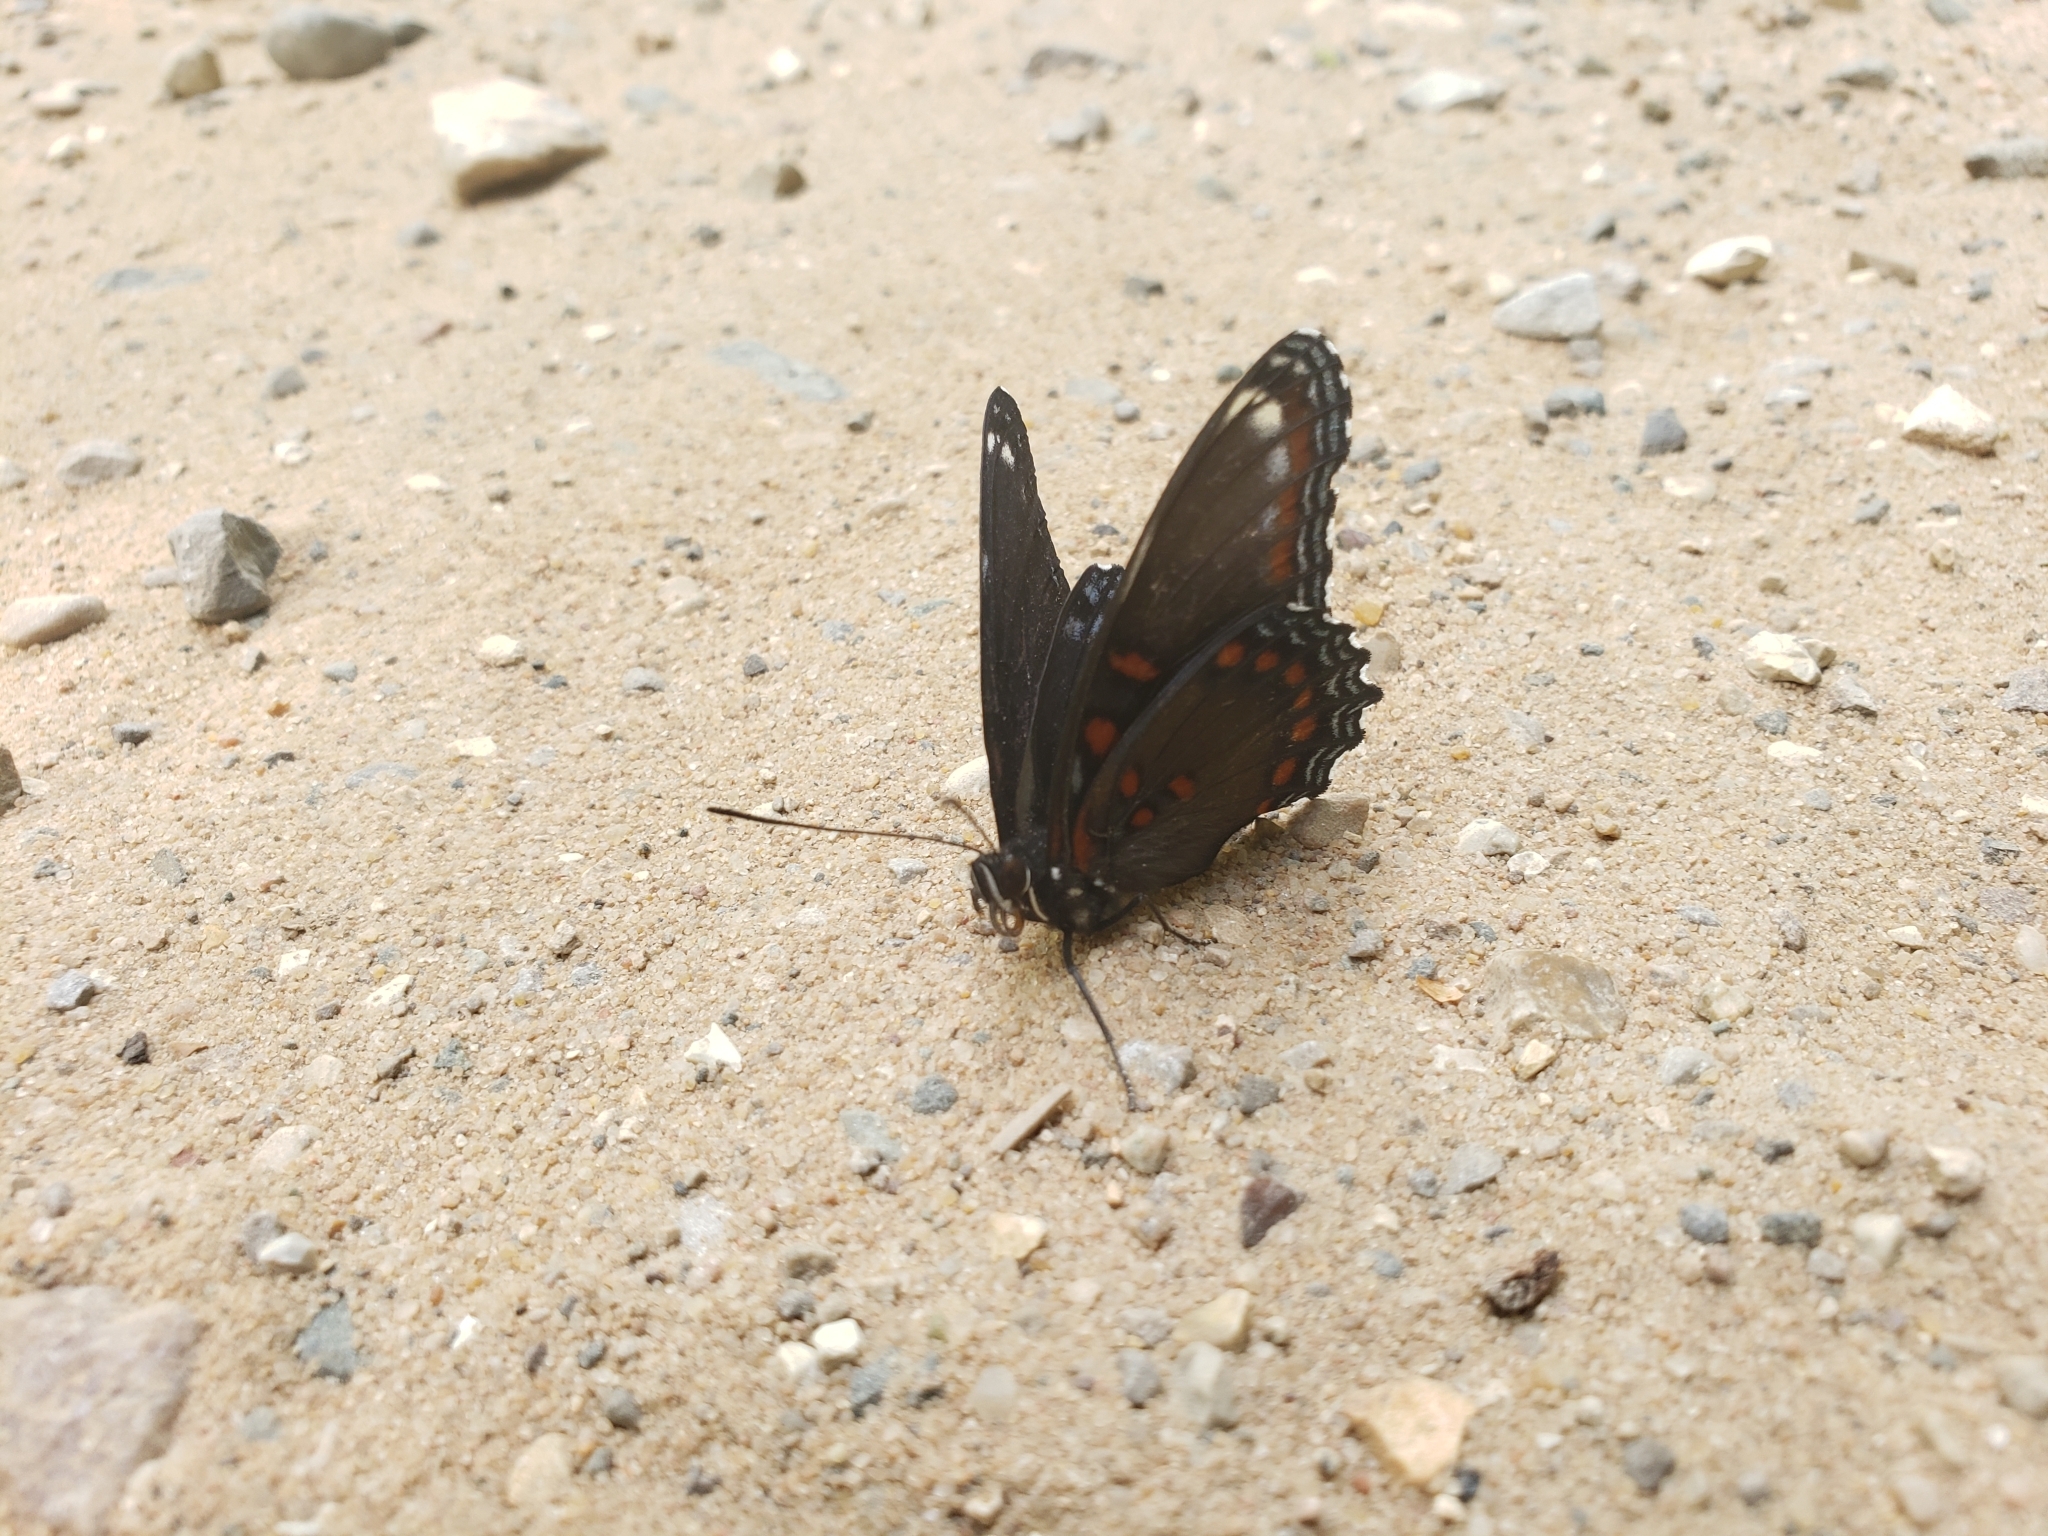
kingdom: Animalia
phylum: Arthropoda
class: Insecta
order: Lepidoptera
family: Nymphalidae
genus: Limenitis
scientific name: Limenitis arthemis
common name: Red-spotted admiral
